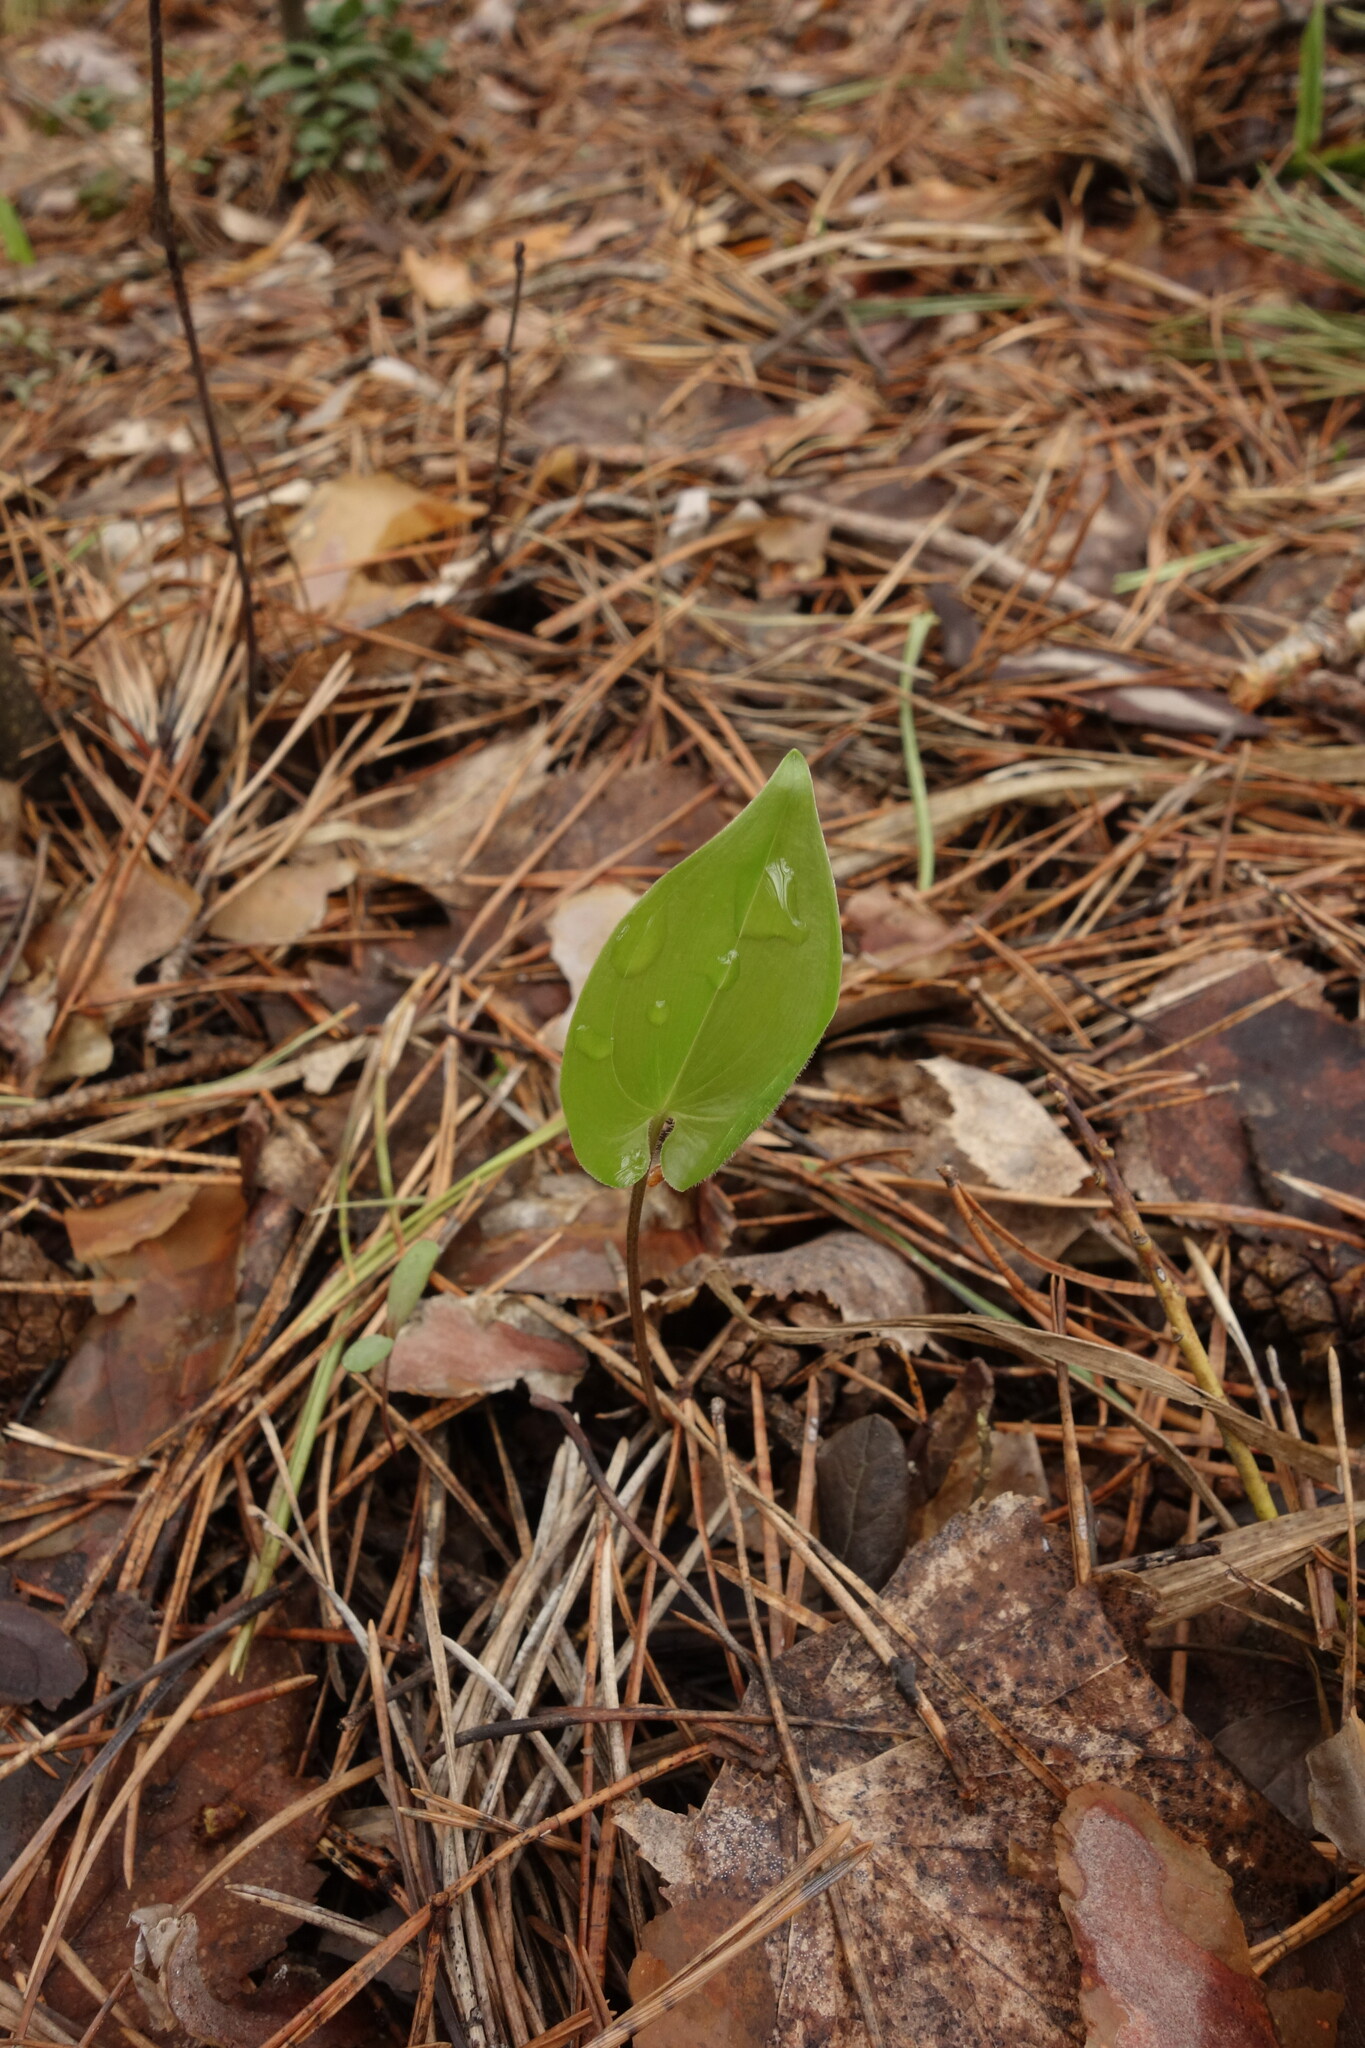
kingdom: Plantae
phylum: Tracheophyta
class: Liliopsida
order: Asparagales
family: Asparagaceae
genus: Maianthemum
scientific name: Maianthemum bifolium
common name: May lily
